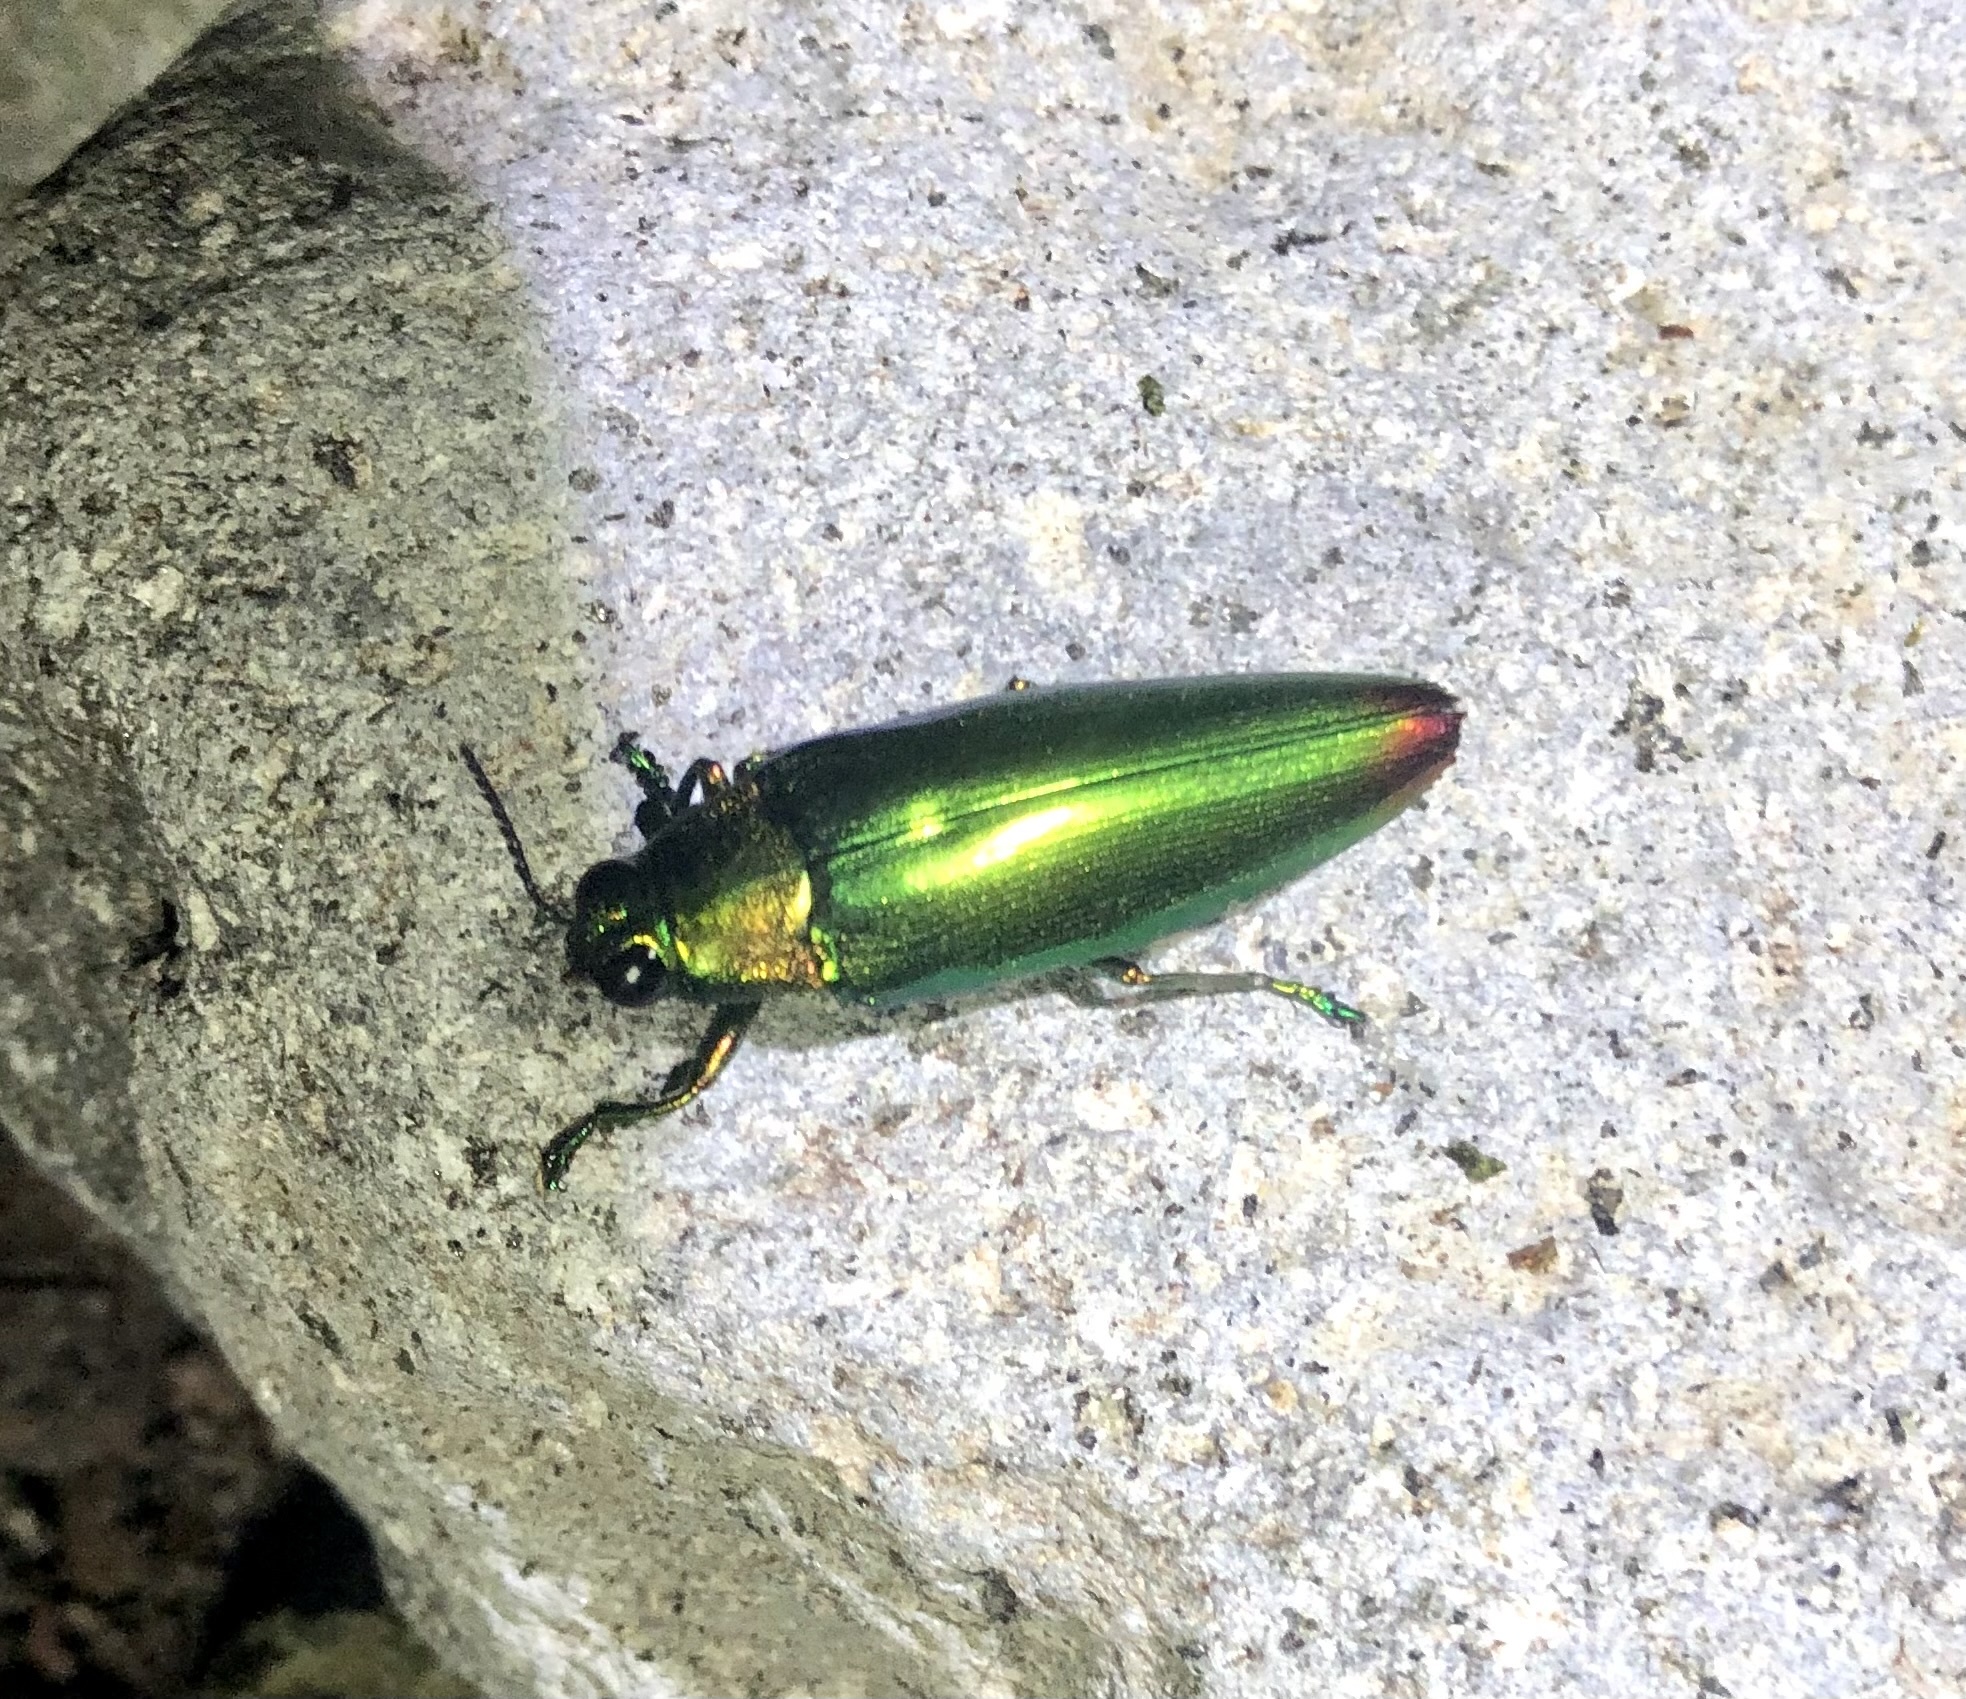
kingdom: Animalia
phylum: Arthropoda
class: Insecta
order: Coleoptera
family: Buprestidae
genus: Chrysochroa
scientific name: Chrysochroa fulminans
